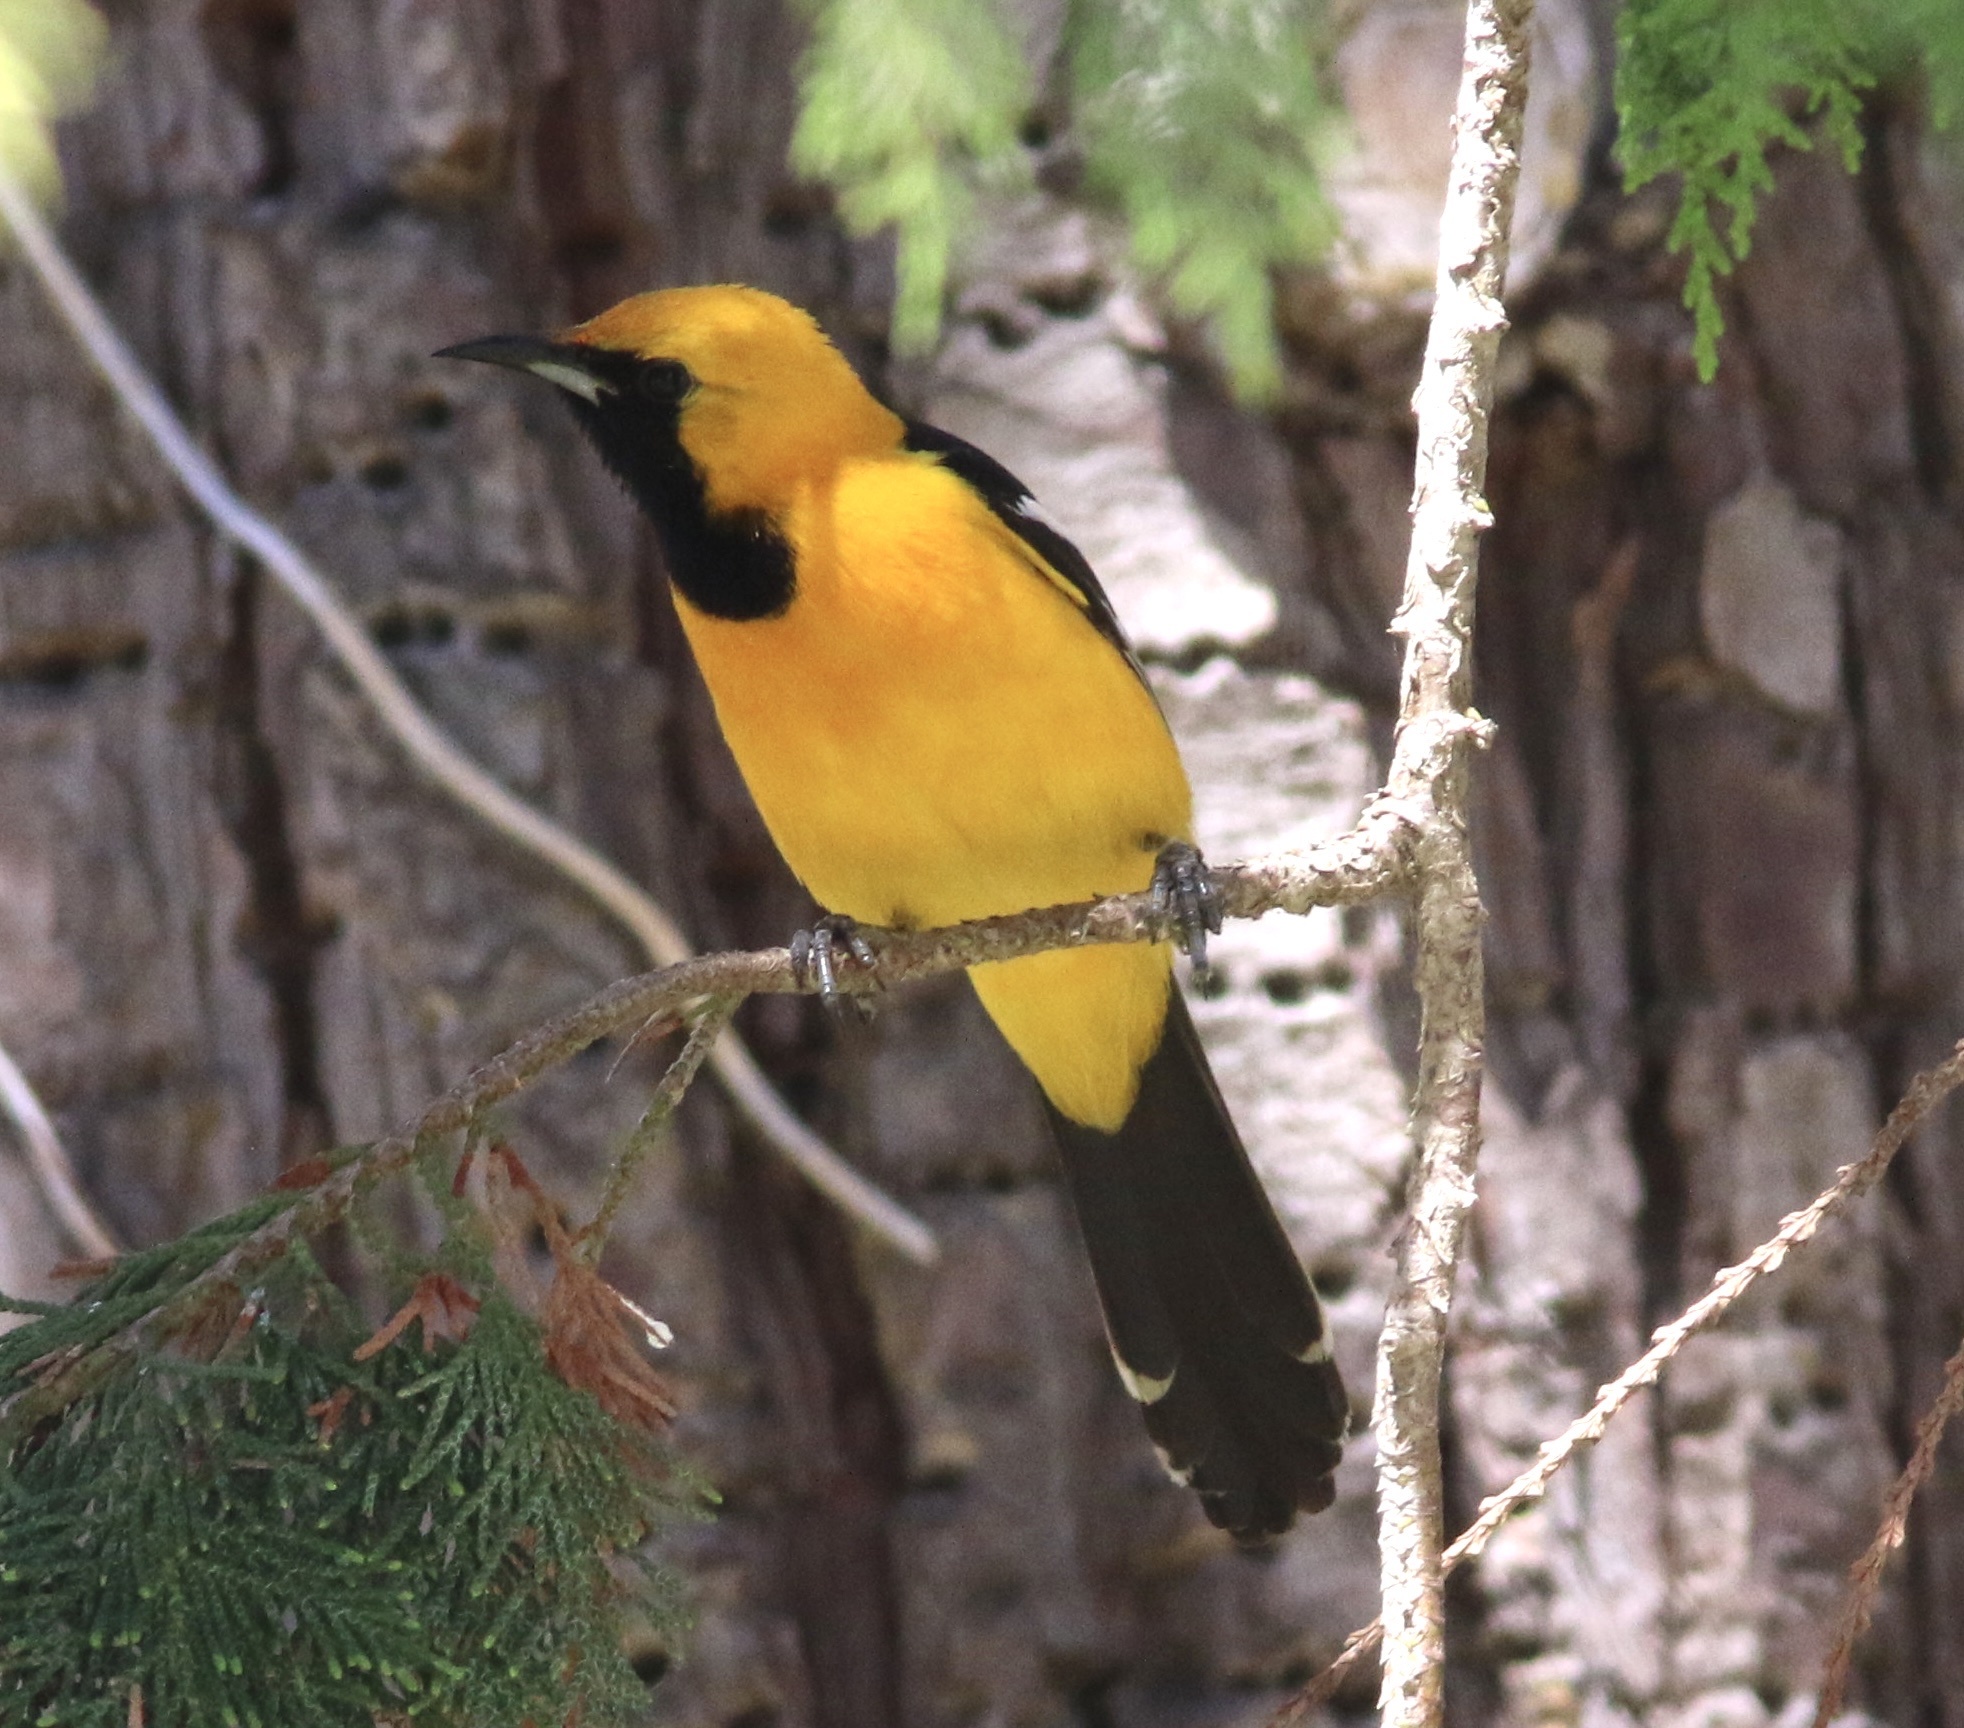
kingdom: Animalia
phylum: Chordata
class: Aves
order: Passeriformes
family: Icteridae
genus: Icterus
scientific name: Icterus cucullatus
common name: Hooded oriole
